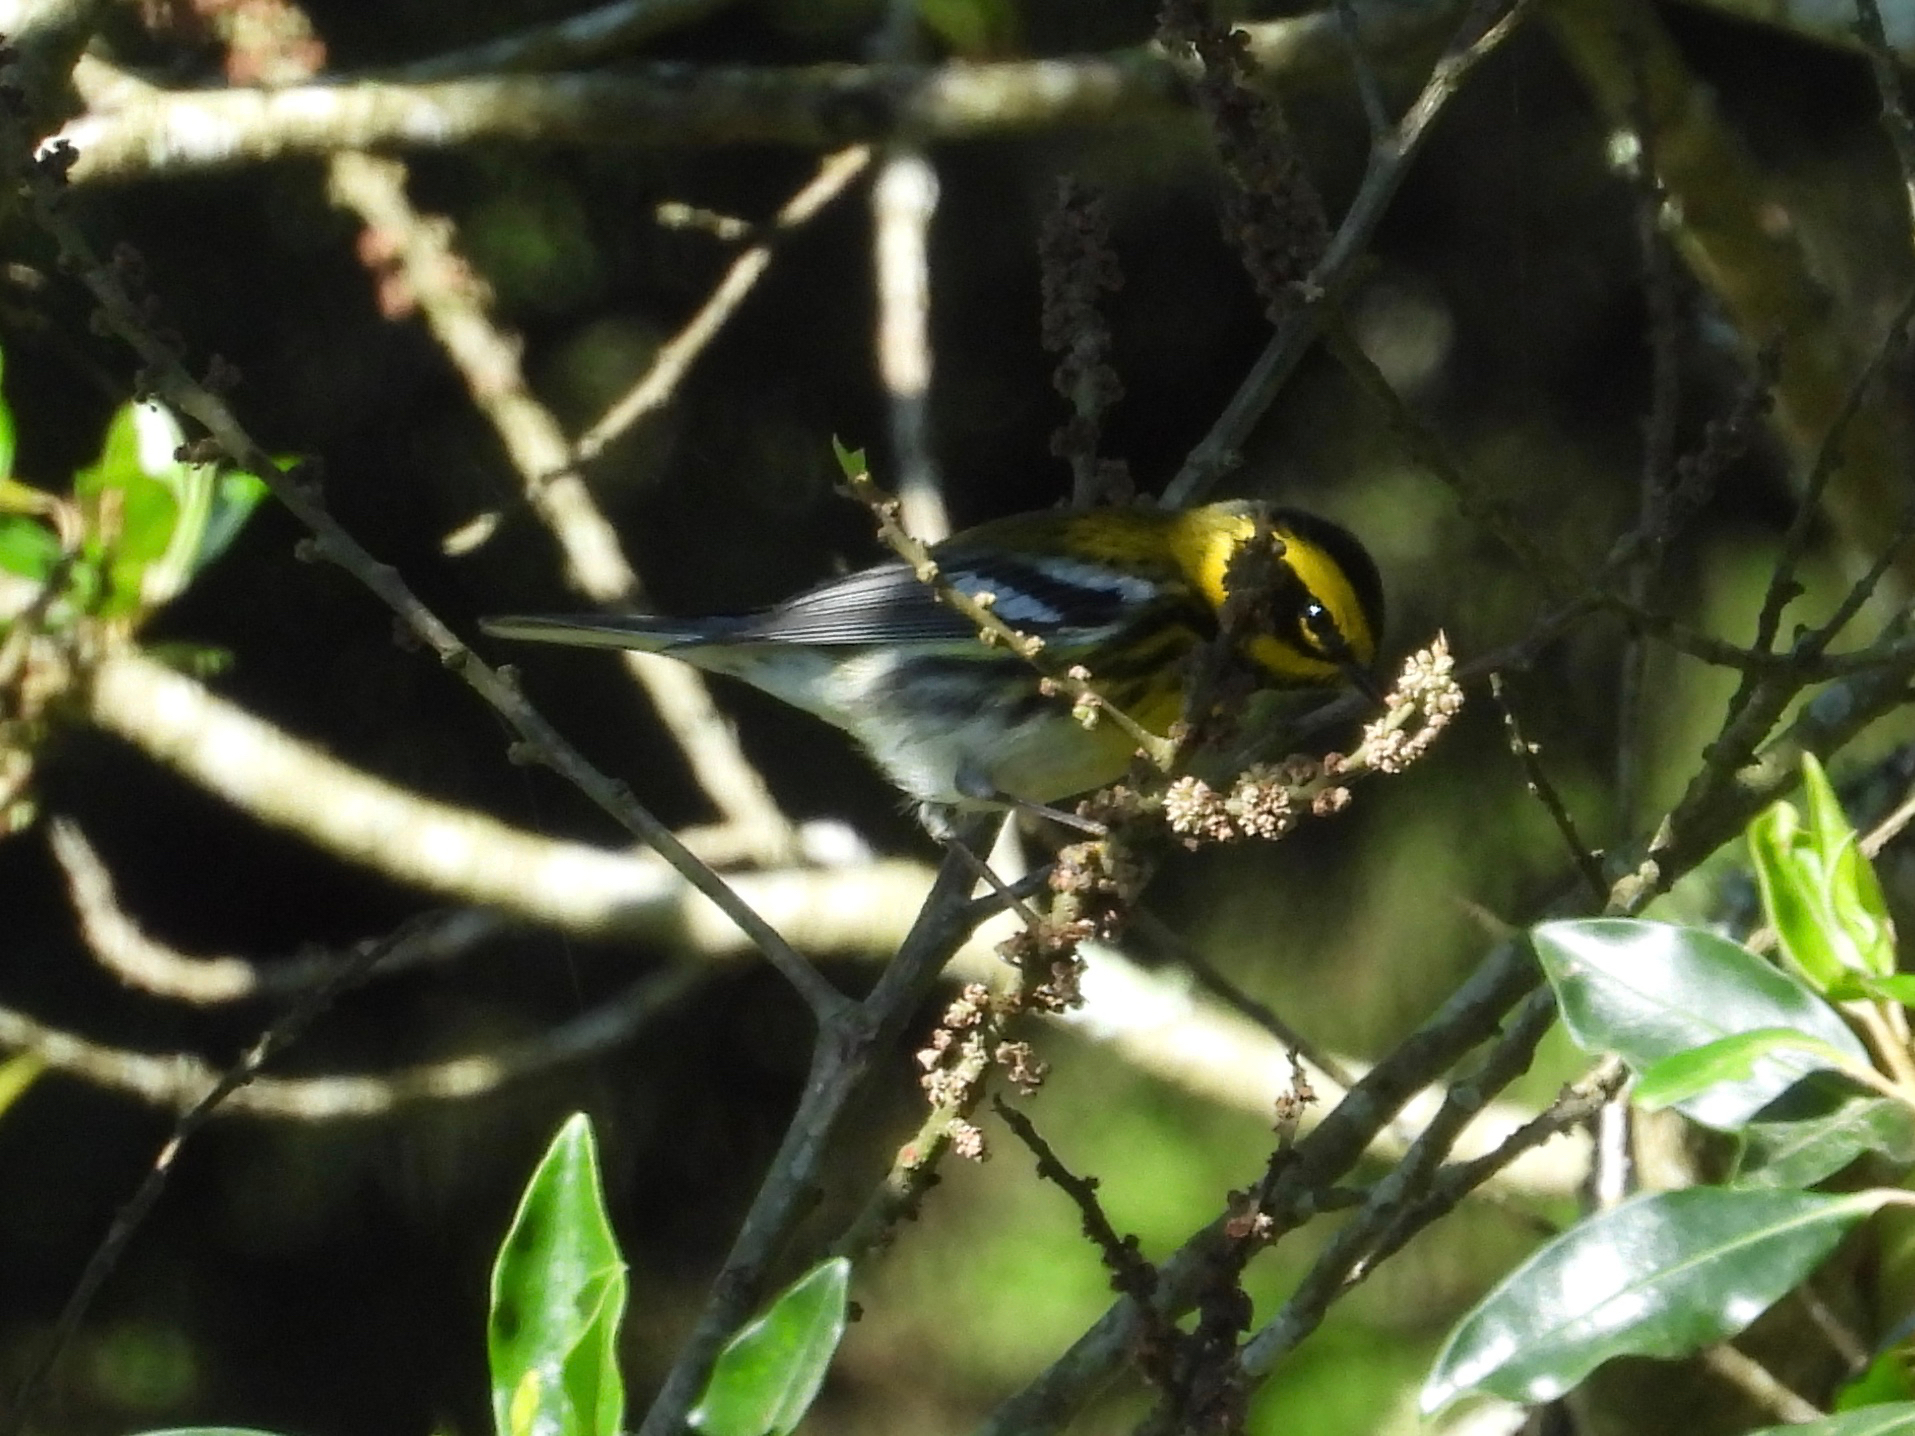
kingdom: Animalia
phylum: Chordata
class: Aves
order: Passeriformes
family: Parulidae
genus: Setophaga
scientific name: Setophaga townsendi
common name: Townsend's warbler
